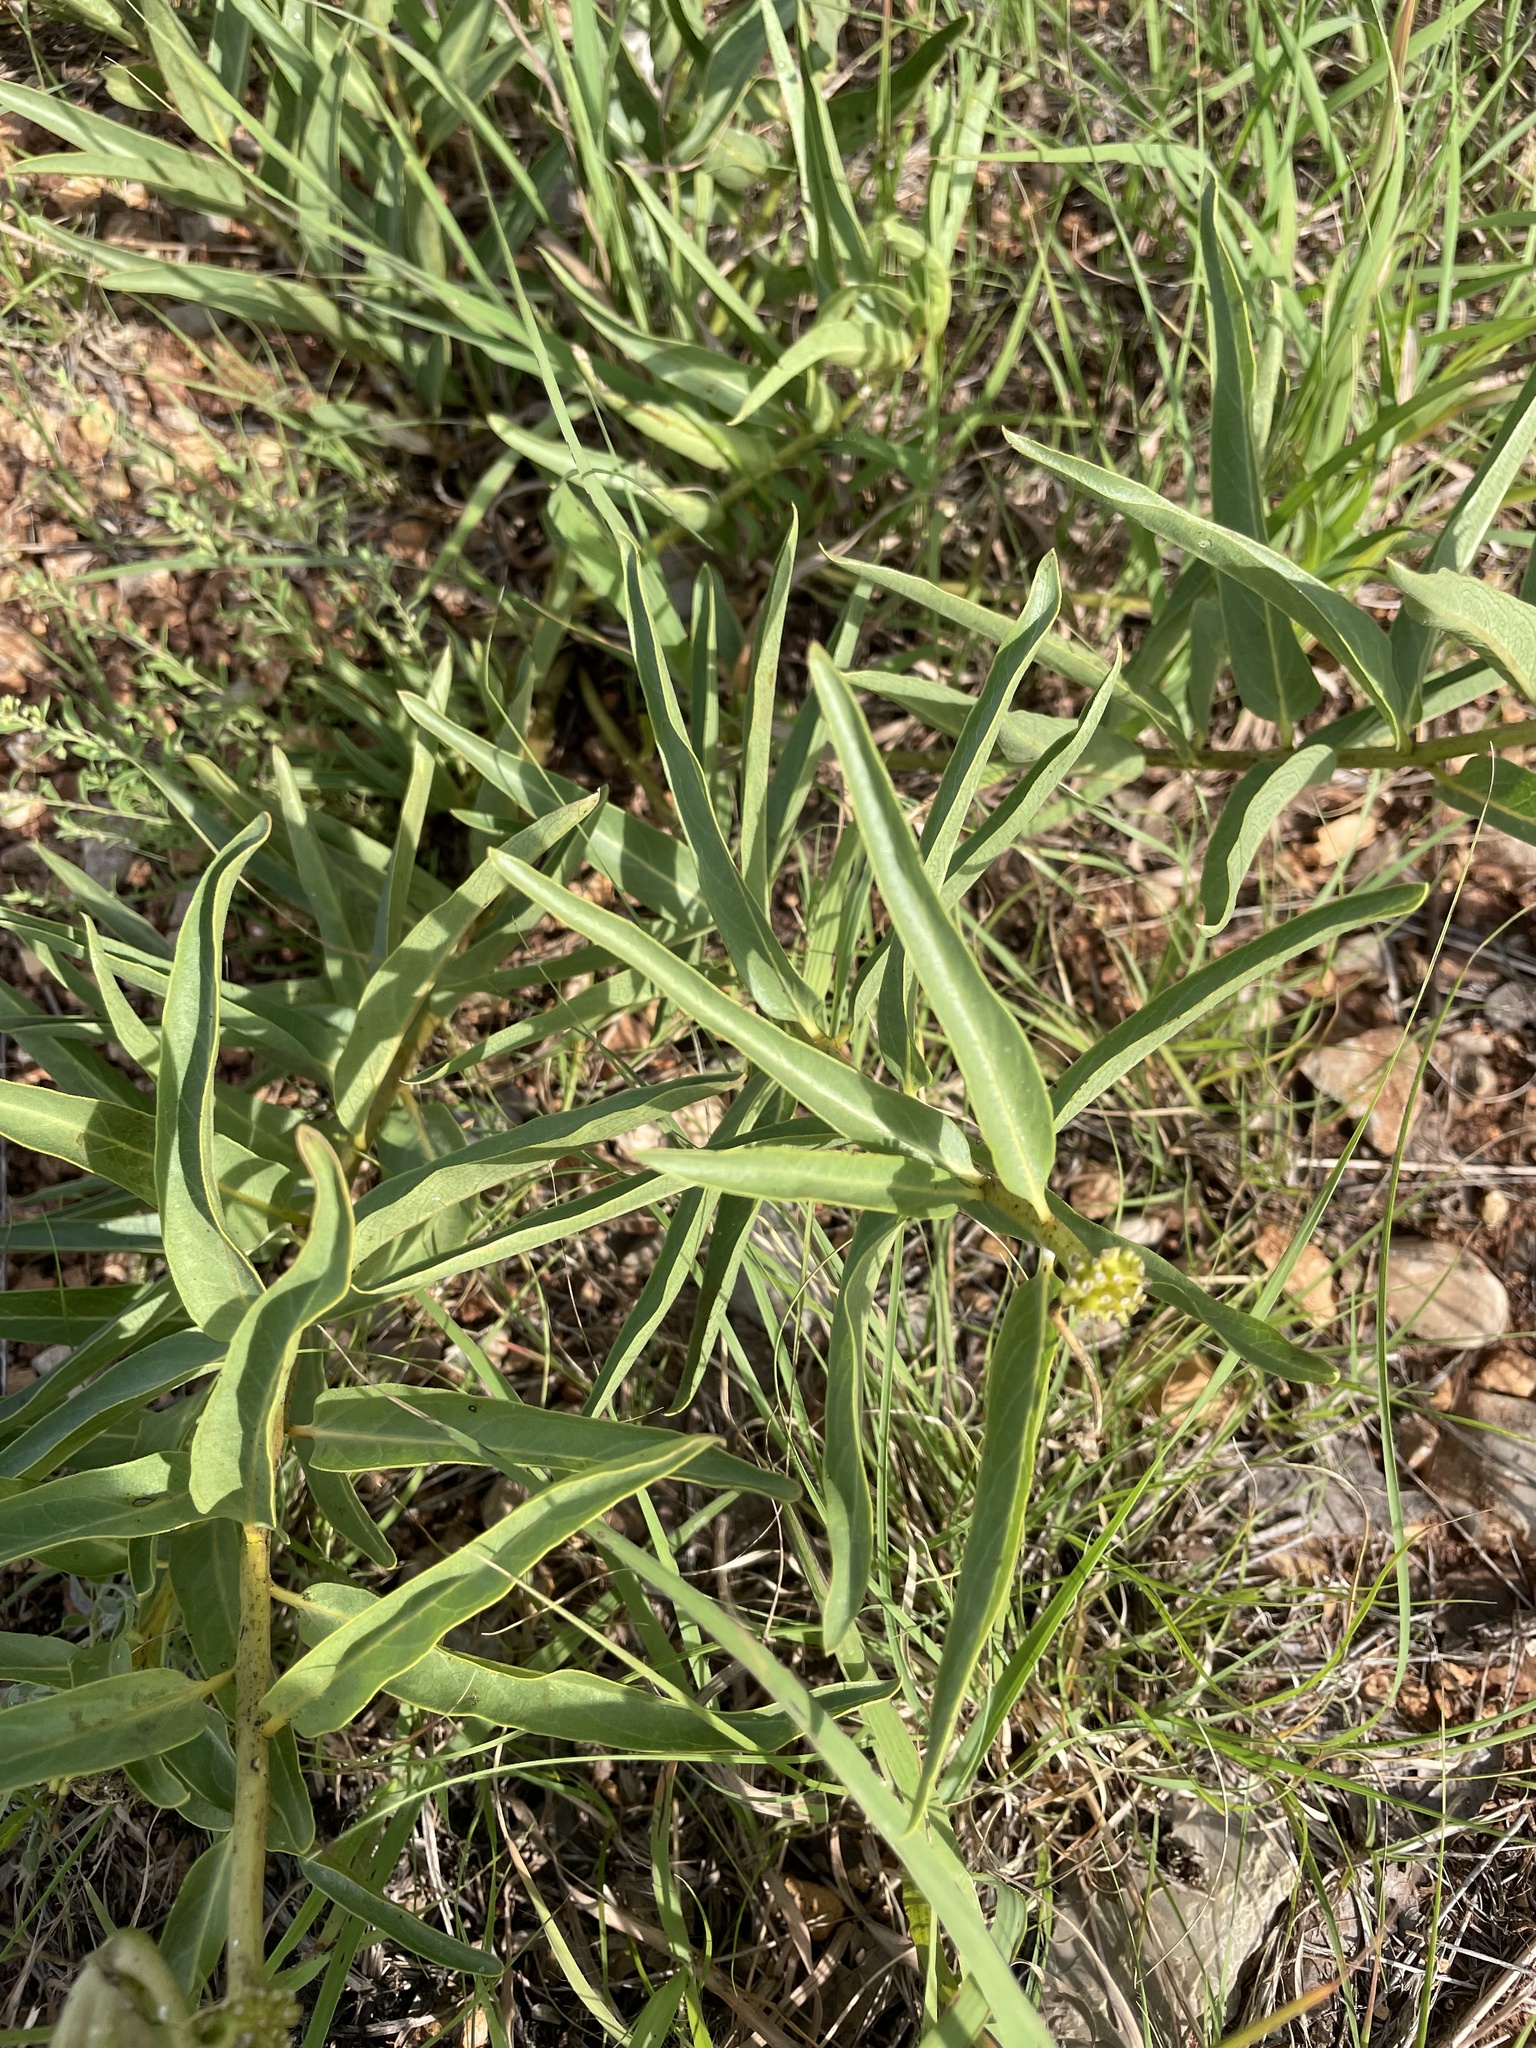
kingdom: Plantae
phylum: Tracheophyta
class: Magnoliopsida
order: Gentianales
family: Apocynaceae
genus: Asclepias
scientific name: Asclepias asperula
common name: Antelope horns
